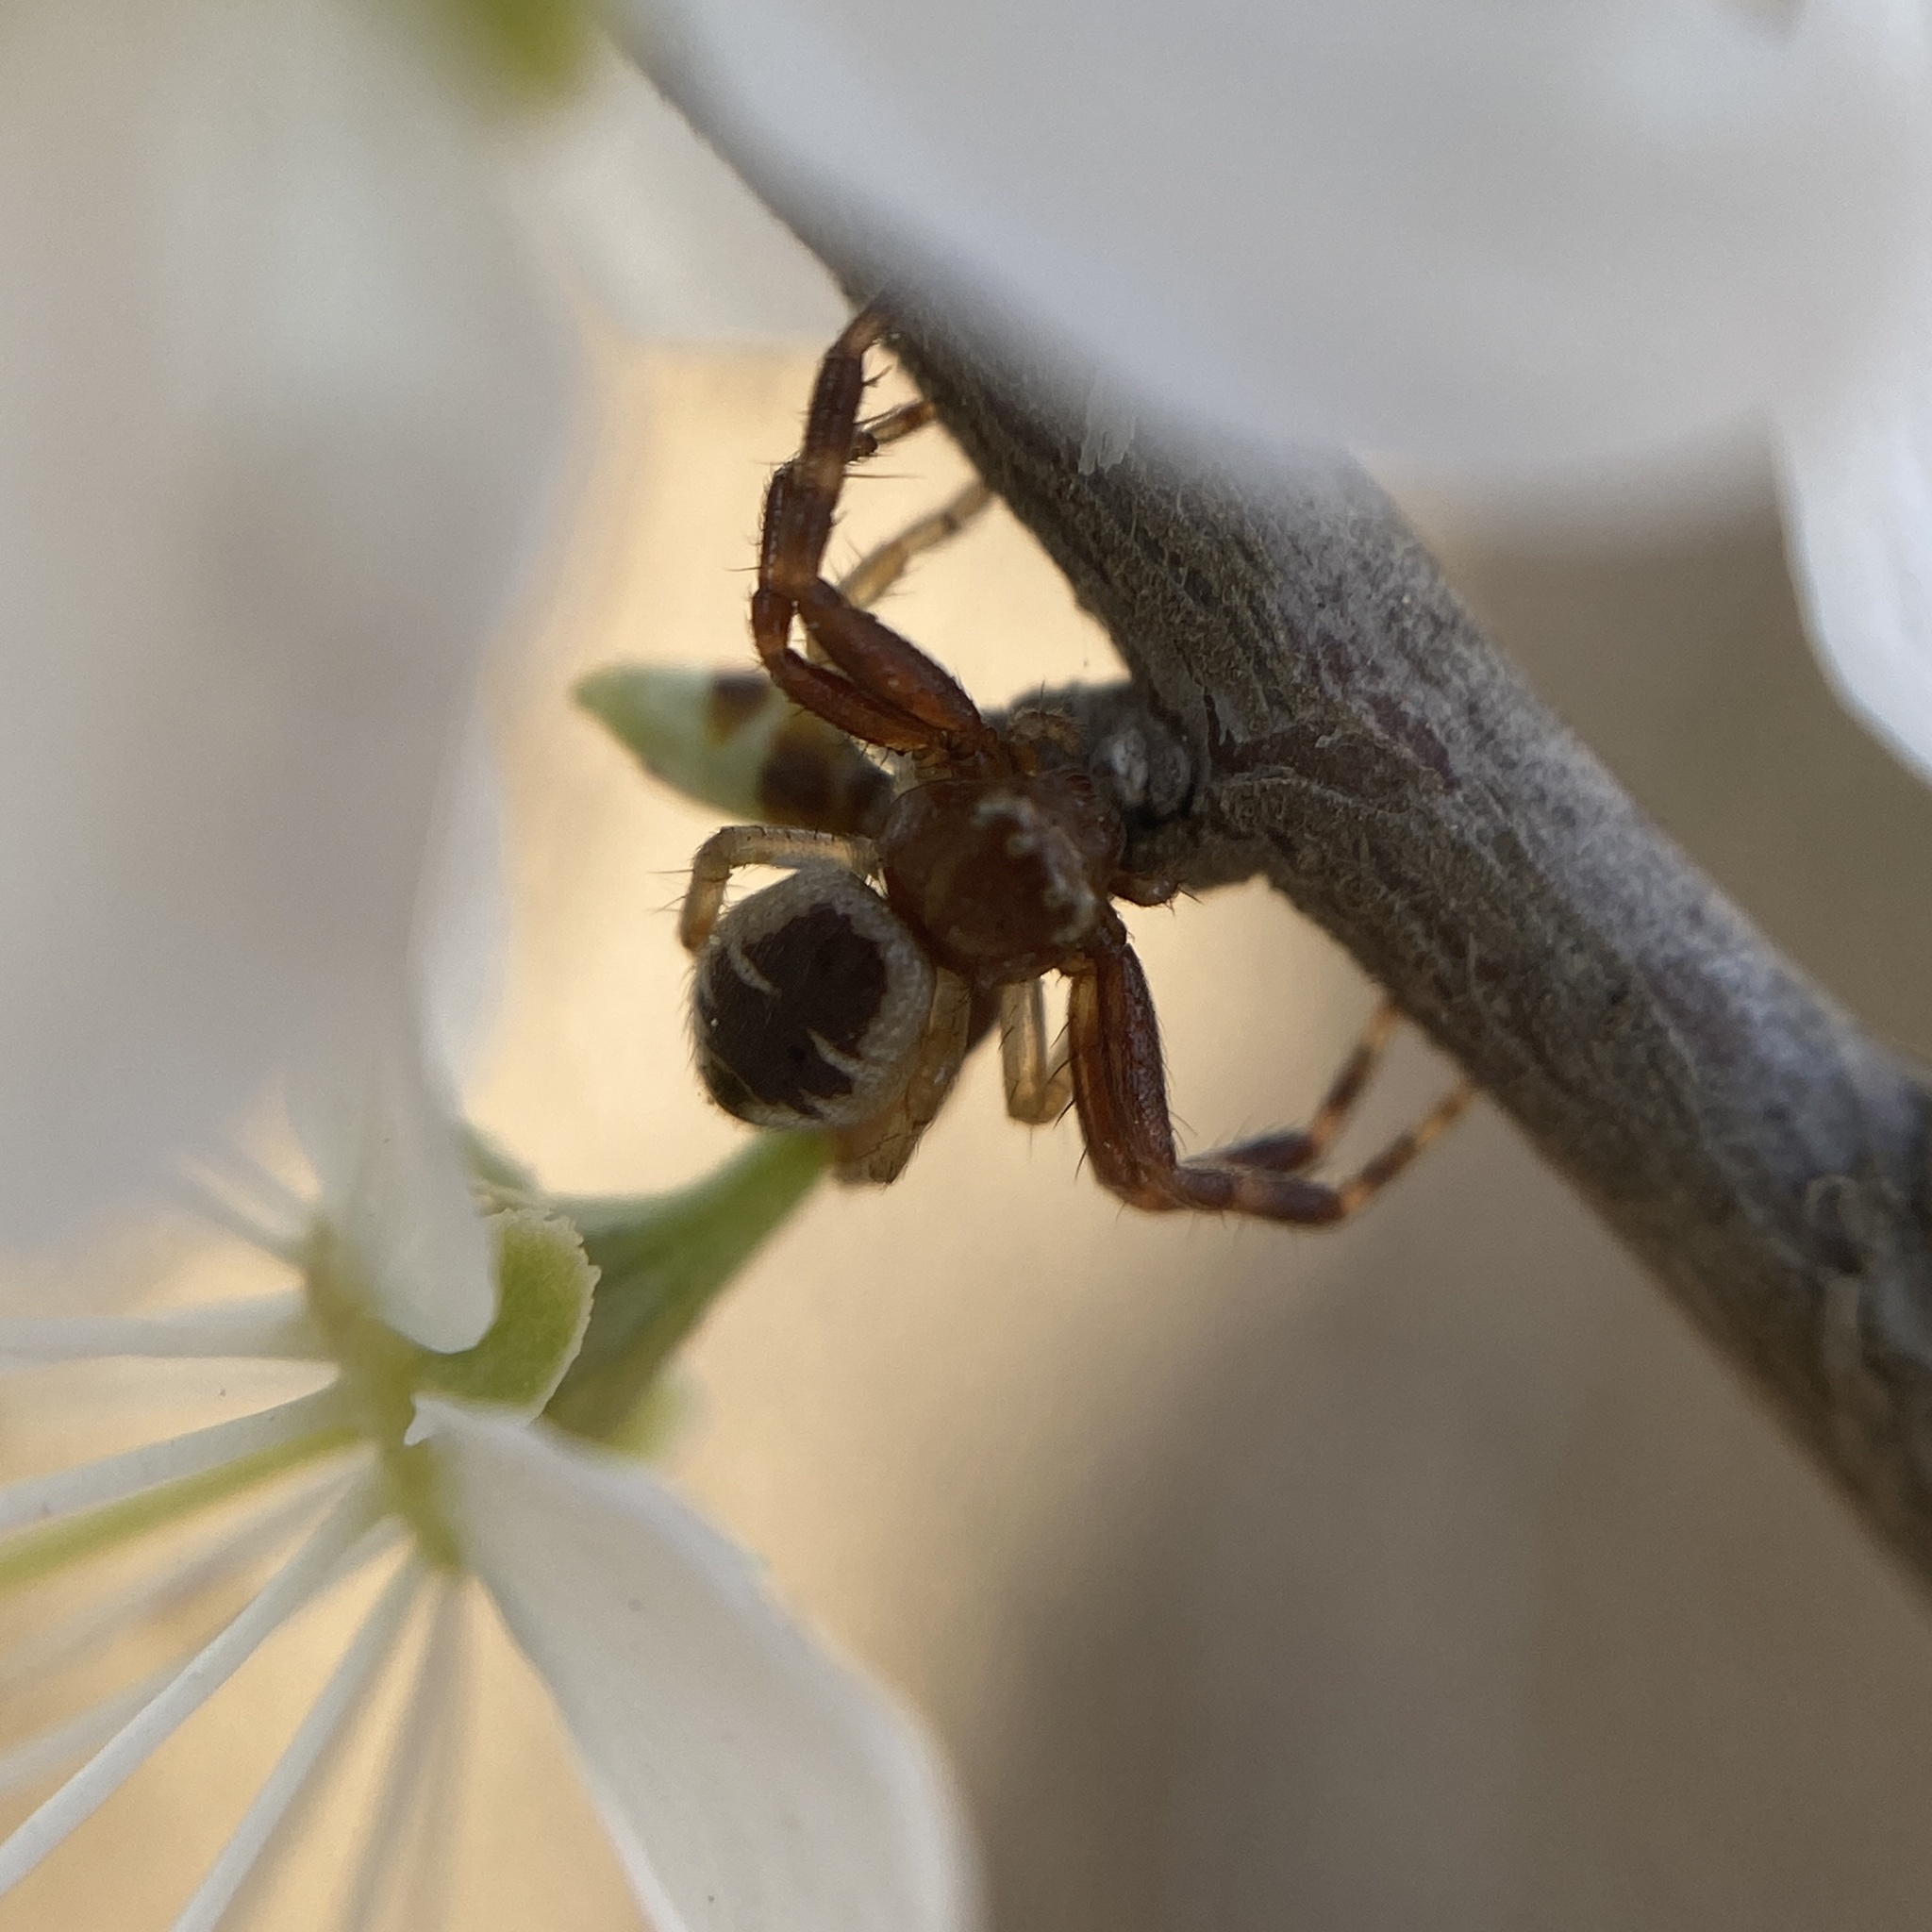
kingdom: Animalia
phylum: Arthropoda
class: Arachnida
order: Araneae
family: Thomisidae
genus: Synema
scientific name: Synema globosum
